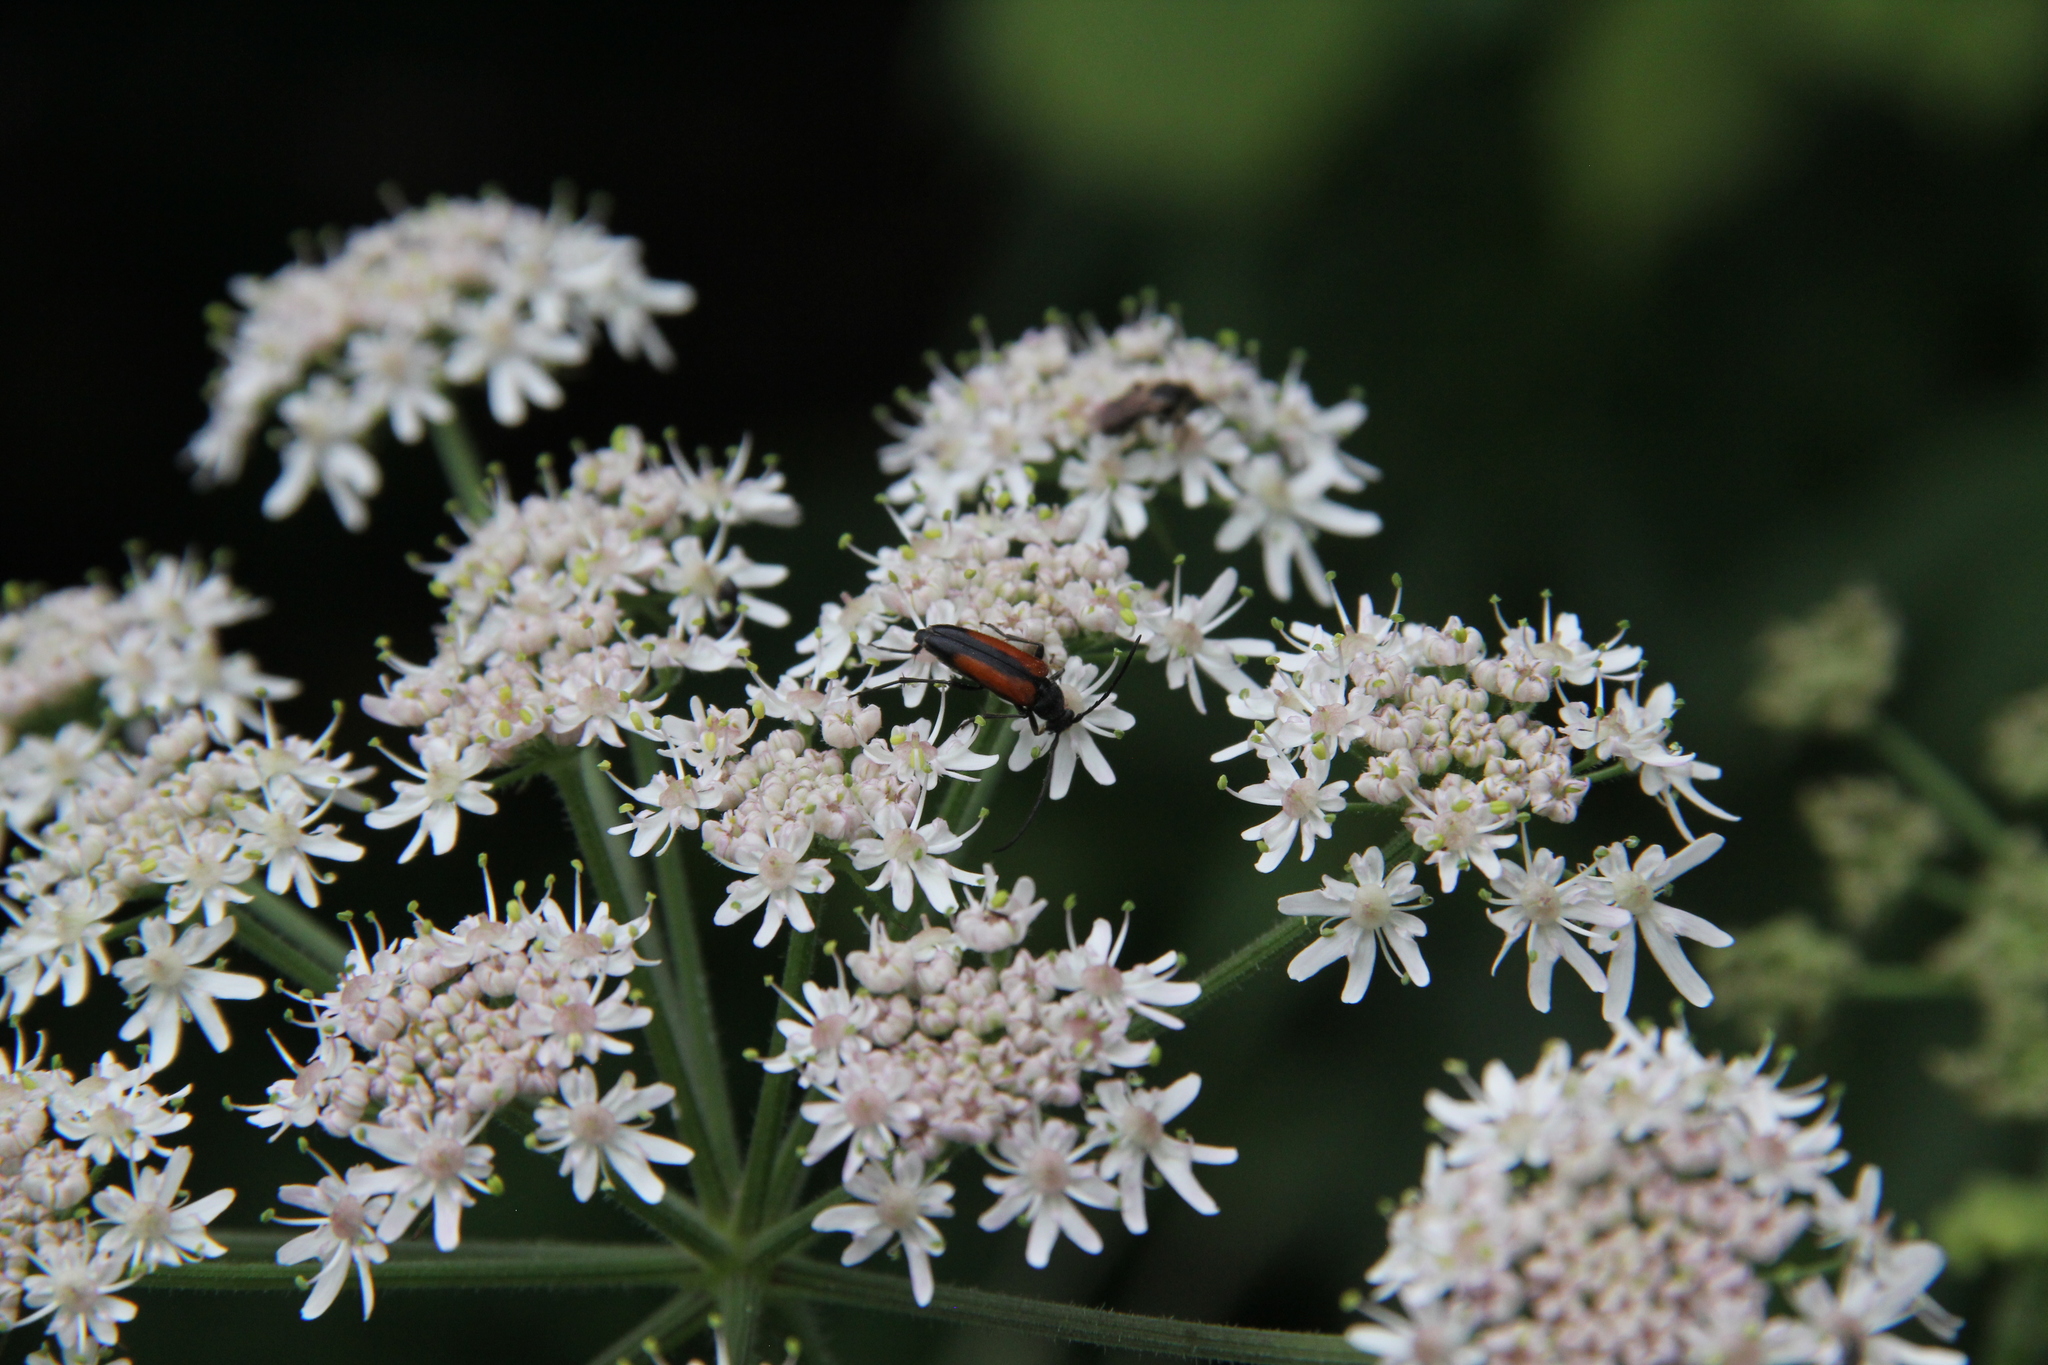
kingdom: Animalia
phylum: Arthropoda
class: Insecta
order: Coleoptera
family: Cerambycidae
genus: Stenurella
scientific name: Stenurella melanura
